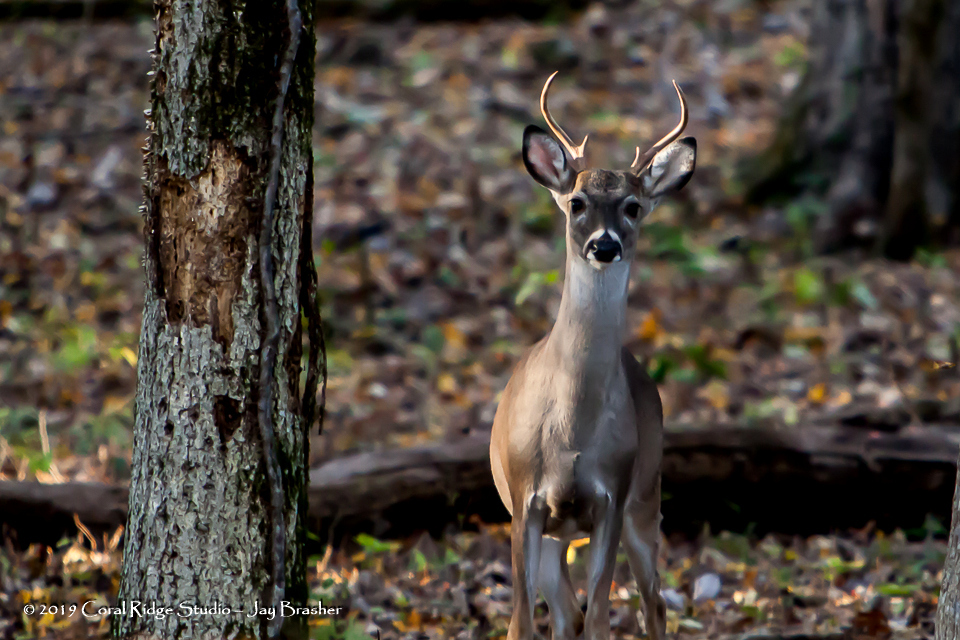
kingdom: Animalia
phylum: Chordata
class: Mammalia
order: Artiodactyla
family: Cervidae
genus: Odocoileus
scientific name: Odocoileus virginianus
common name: White-tailed deer
